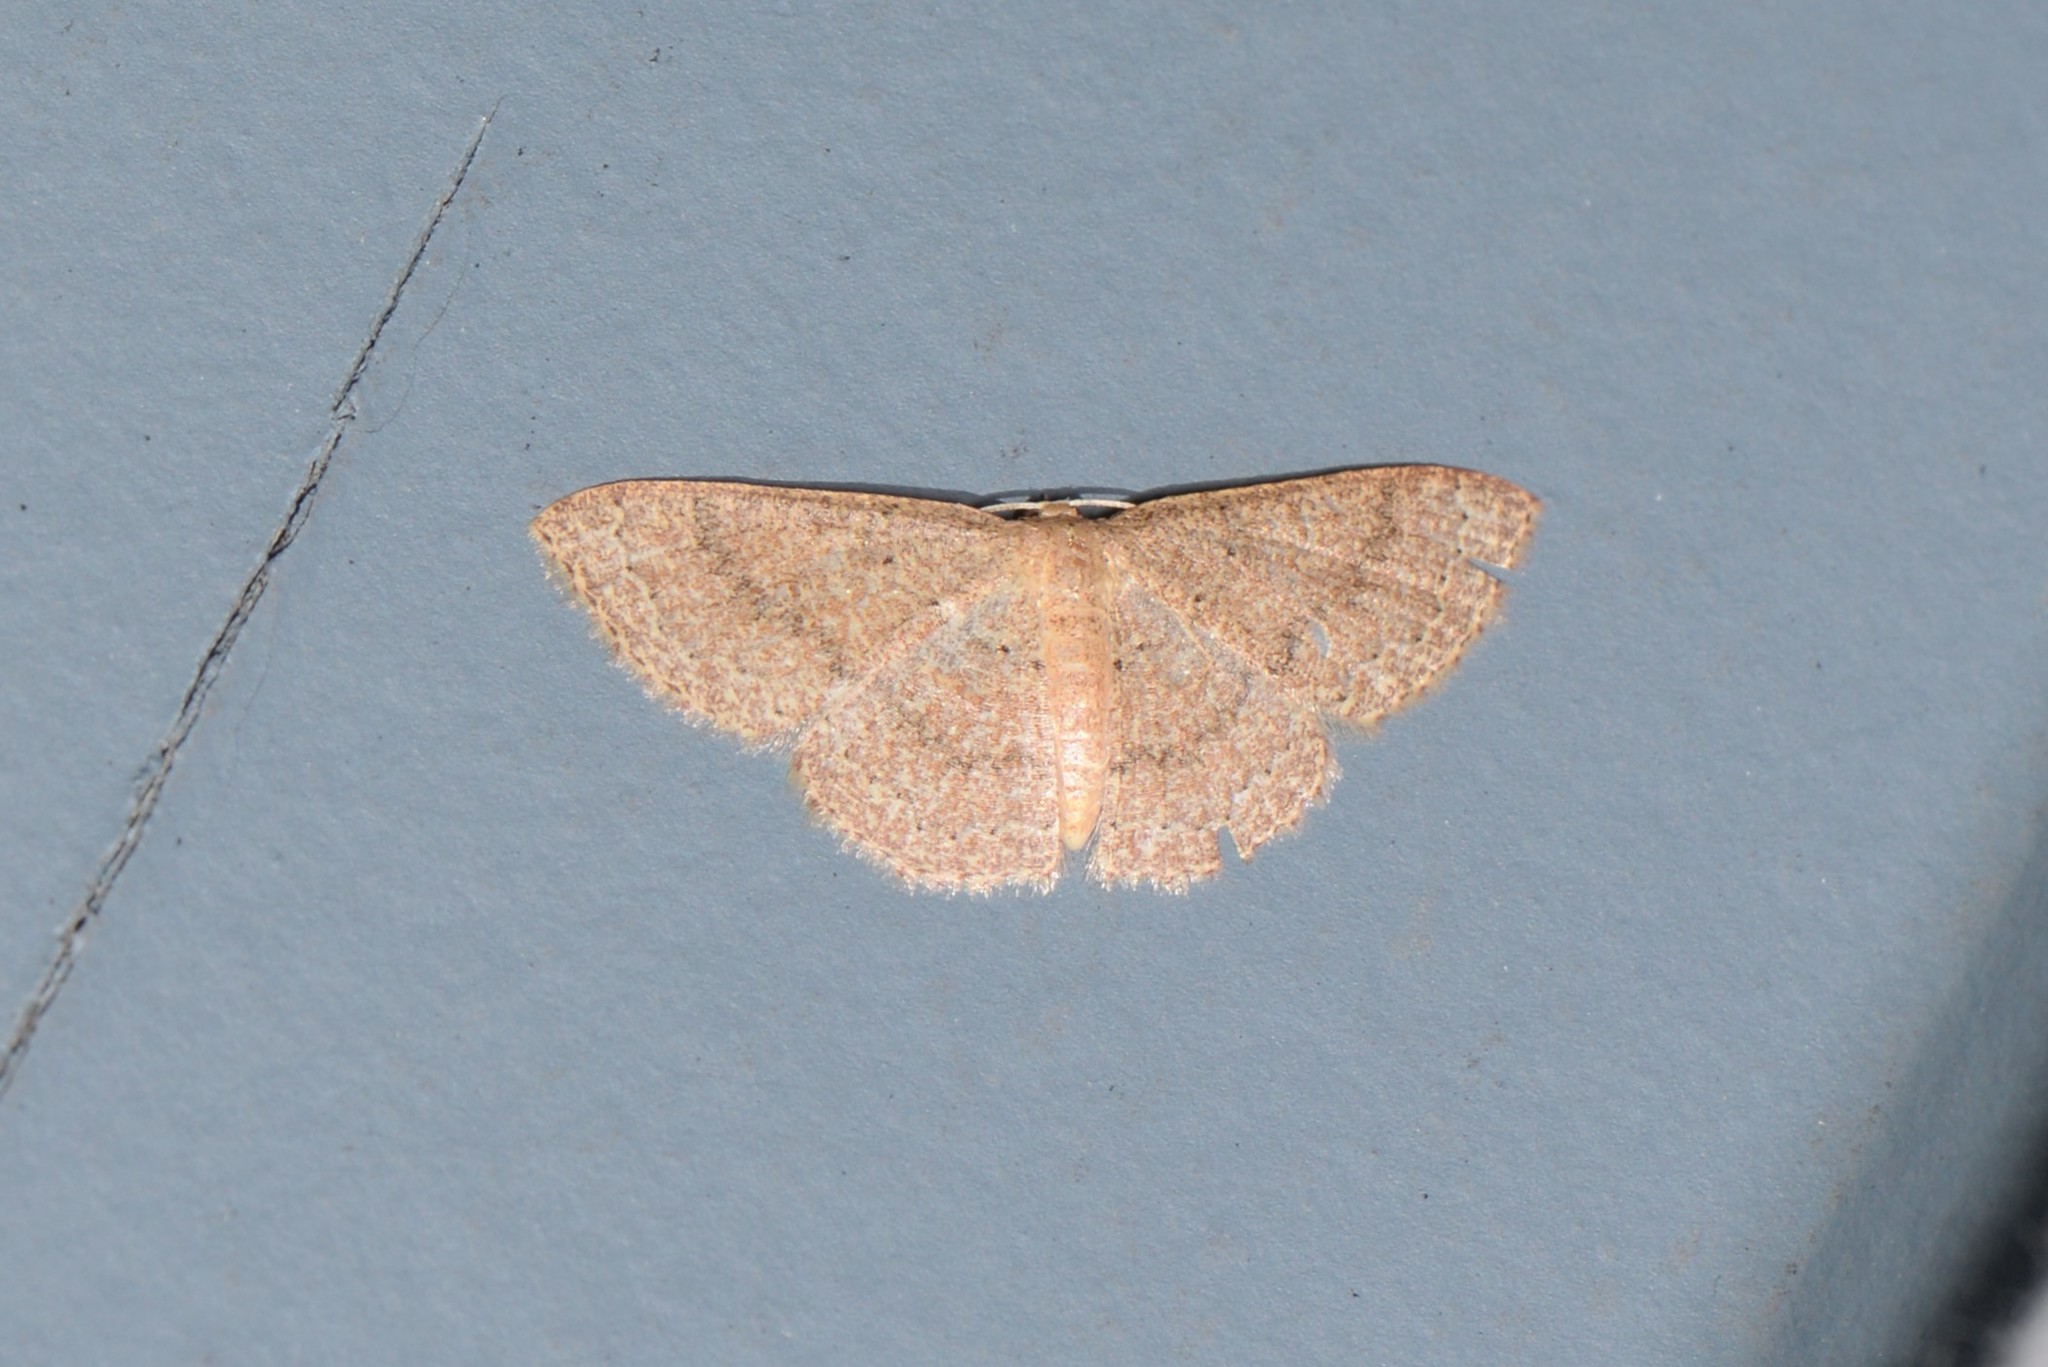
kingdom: Animalia
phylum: Arthropoda
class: Insecta
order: Lepidoptera
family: Geometridae
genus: Pleuroprucha
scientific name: Pleuroprucha insulsaria
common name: Common tan wave
